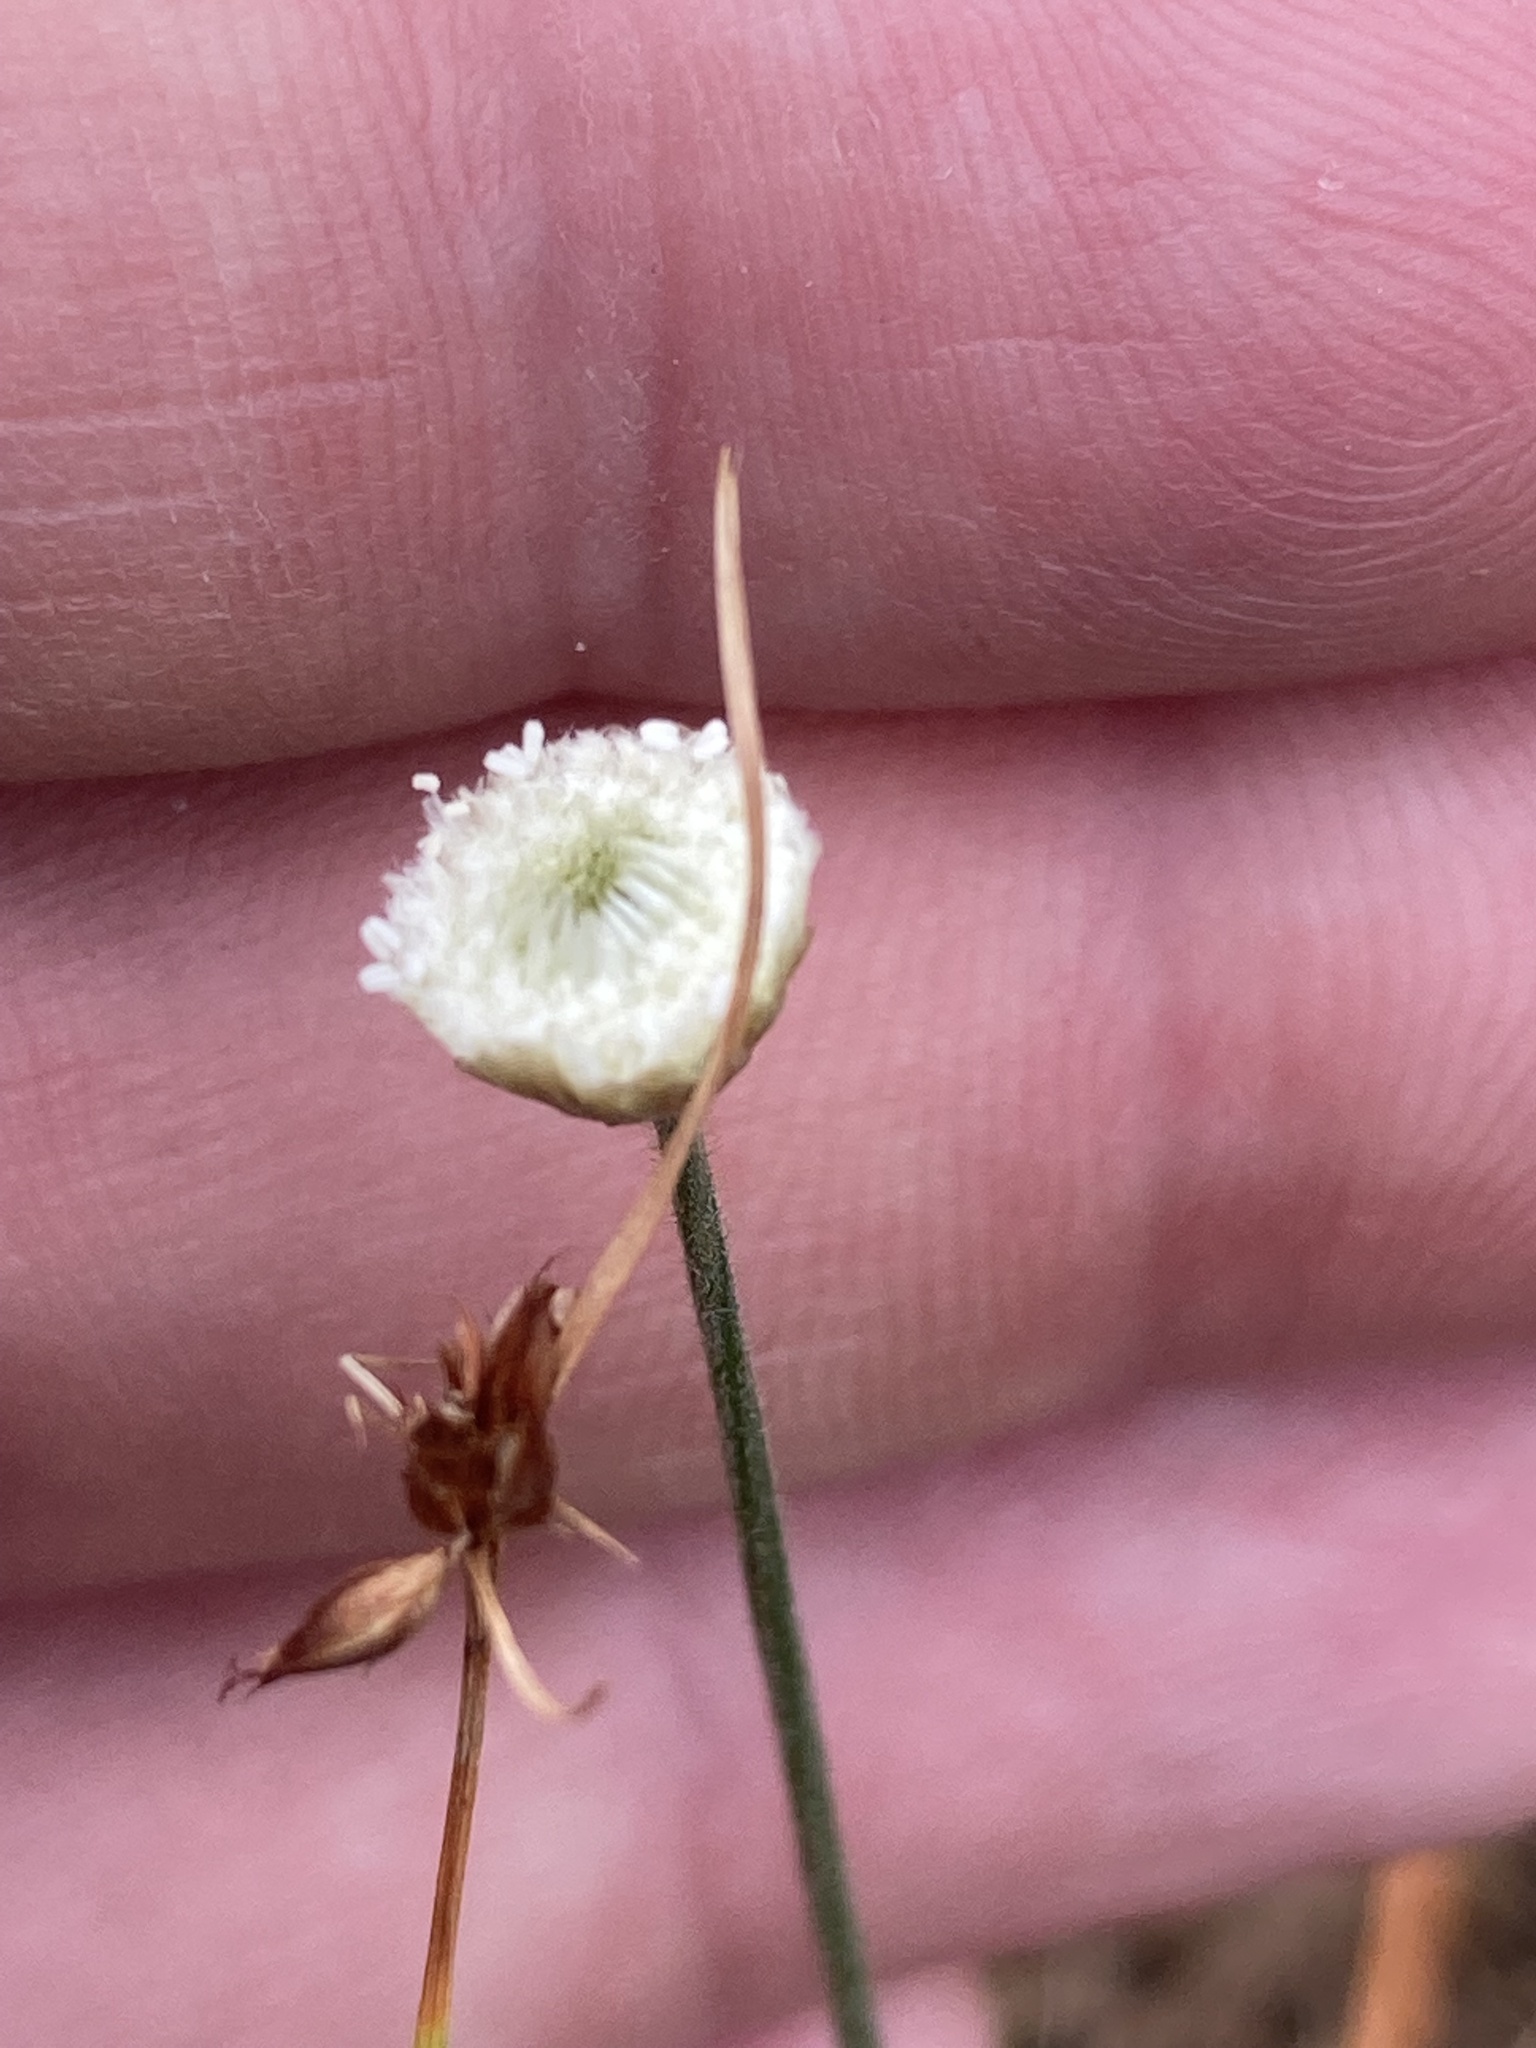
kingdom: Plantae
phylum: Tracheophyta
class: Liliopsida
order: Poales
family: Eriocaulaceae
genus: Syngonanthus
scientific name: Syngonanthus flavidulus
